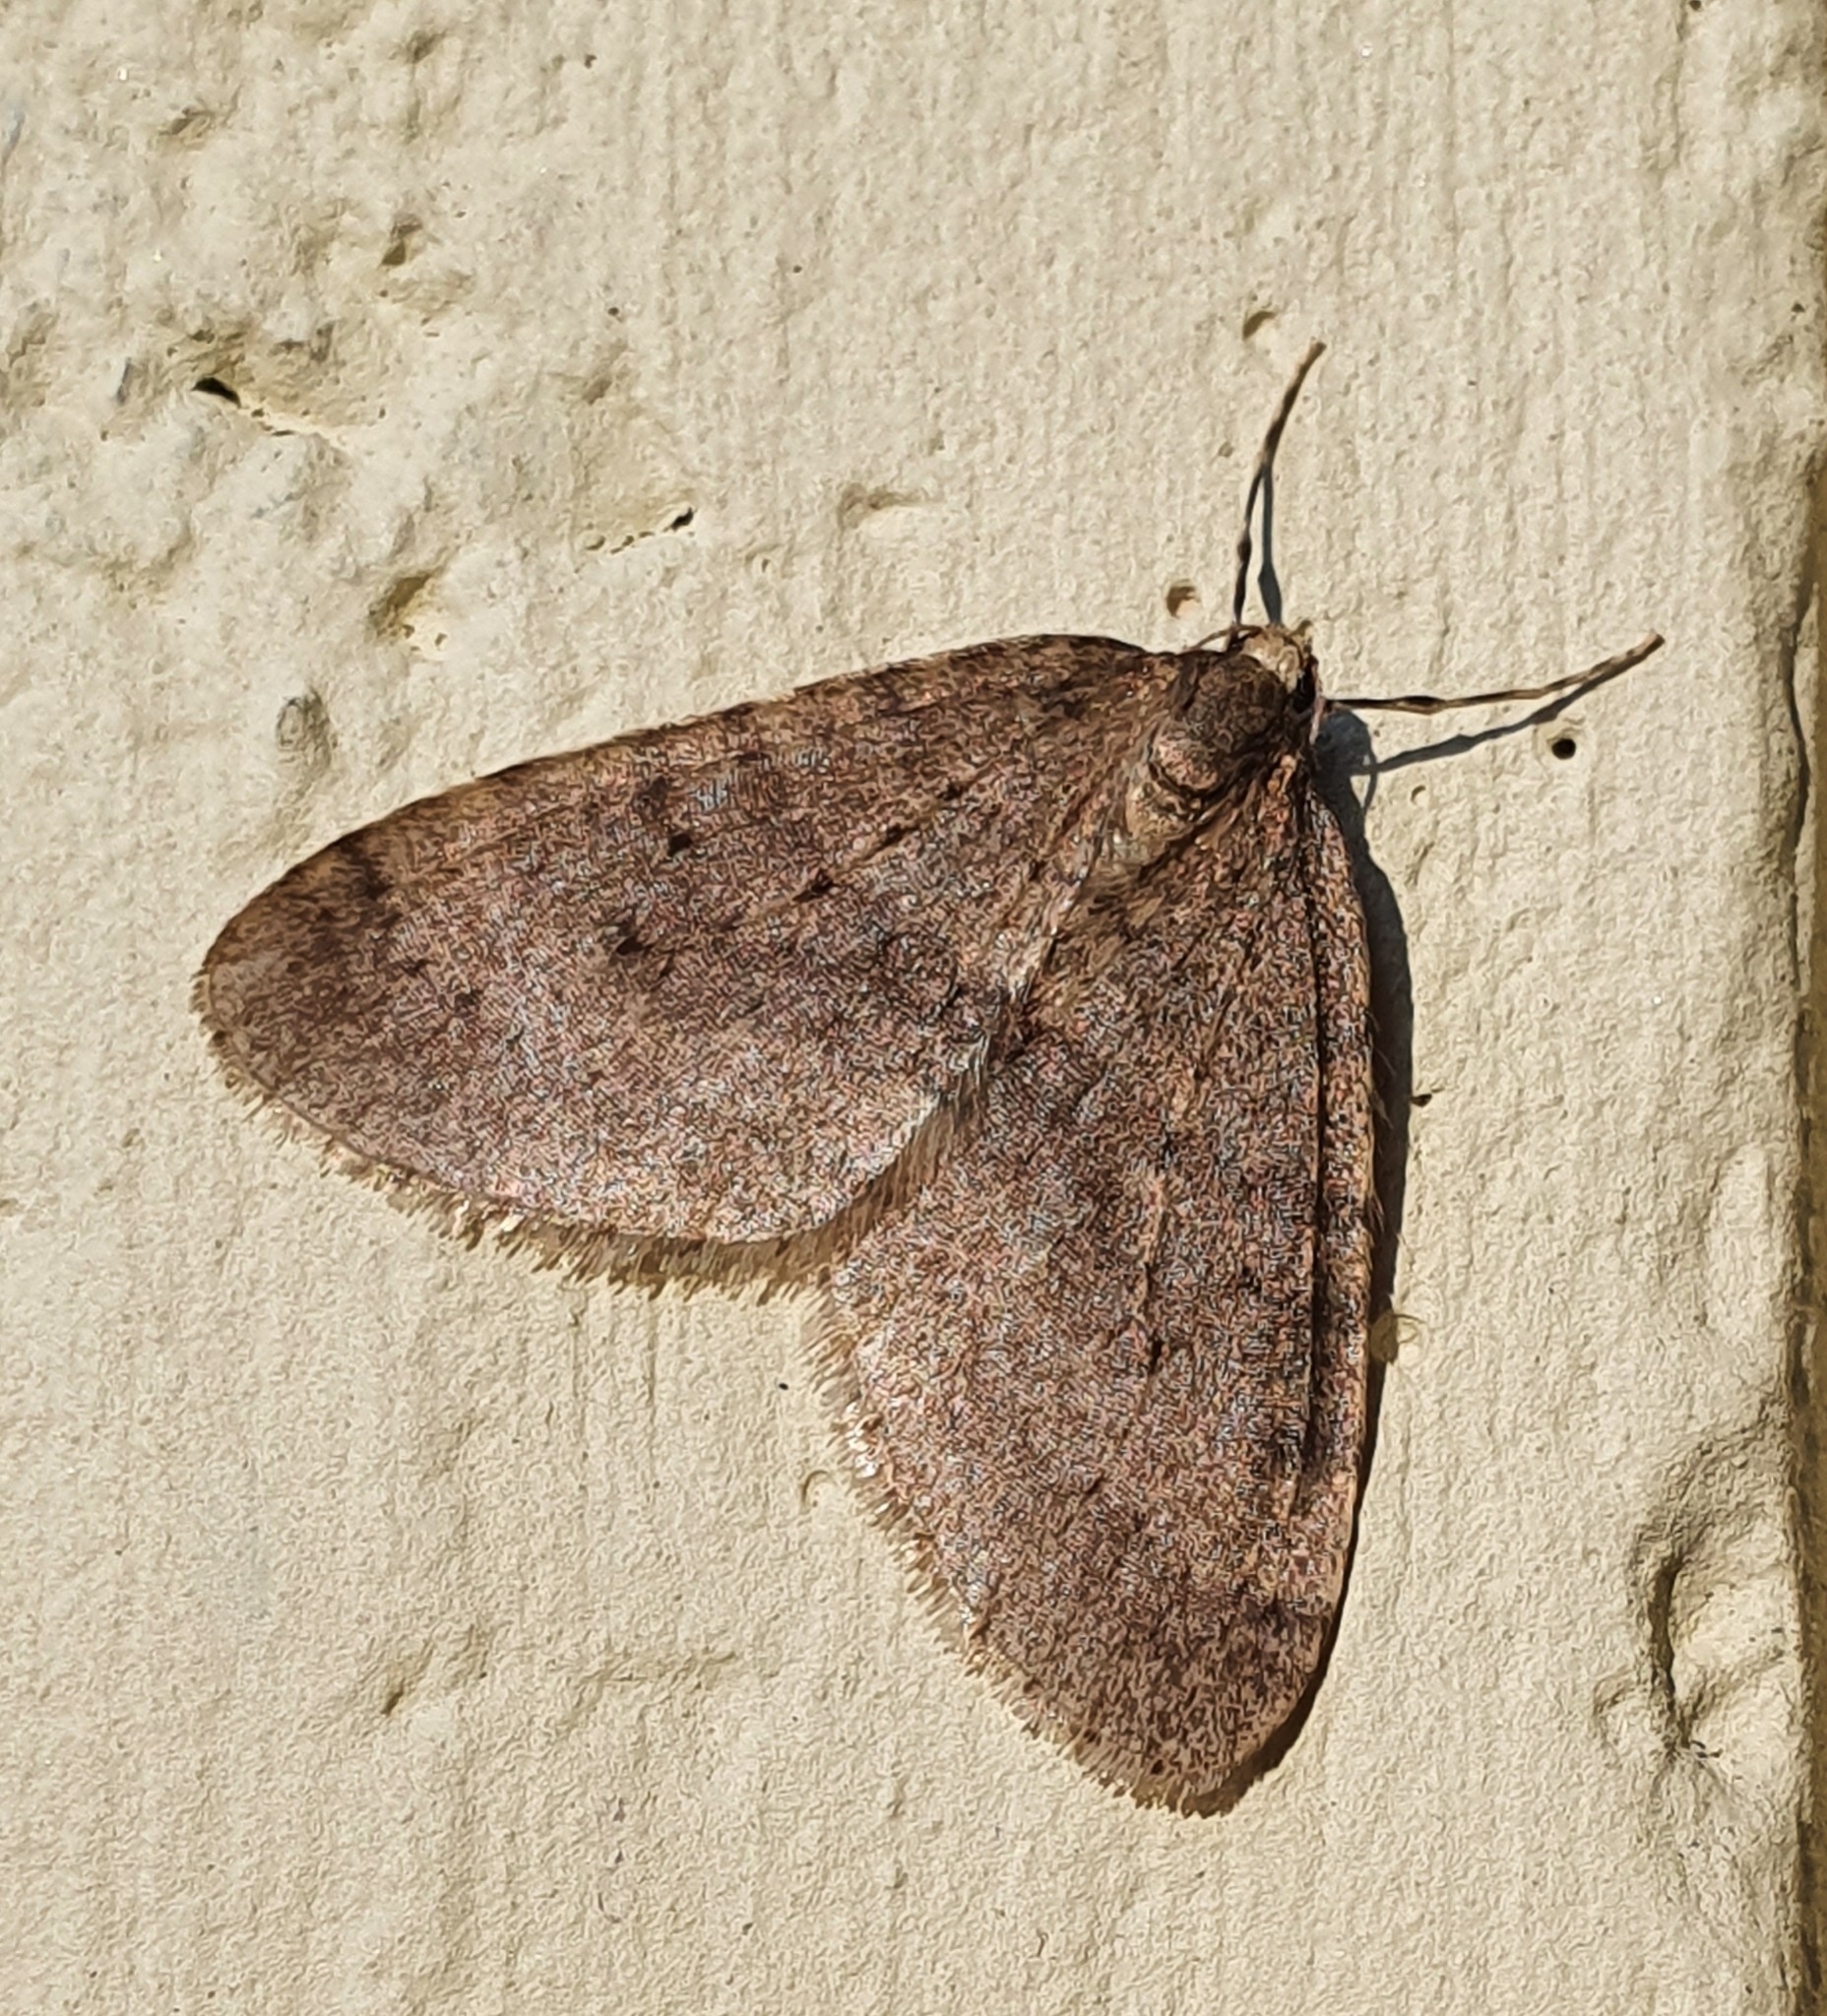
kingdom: Animalia
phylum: Arthropoda
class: Insecta
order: Lepidoptera
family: Geometridae
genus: Operophtera
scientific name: Operophtera brumata
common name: Winter moth
